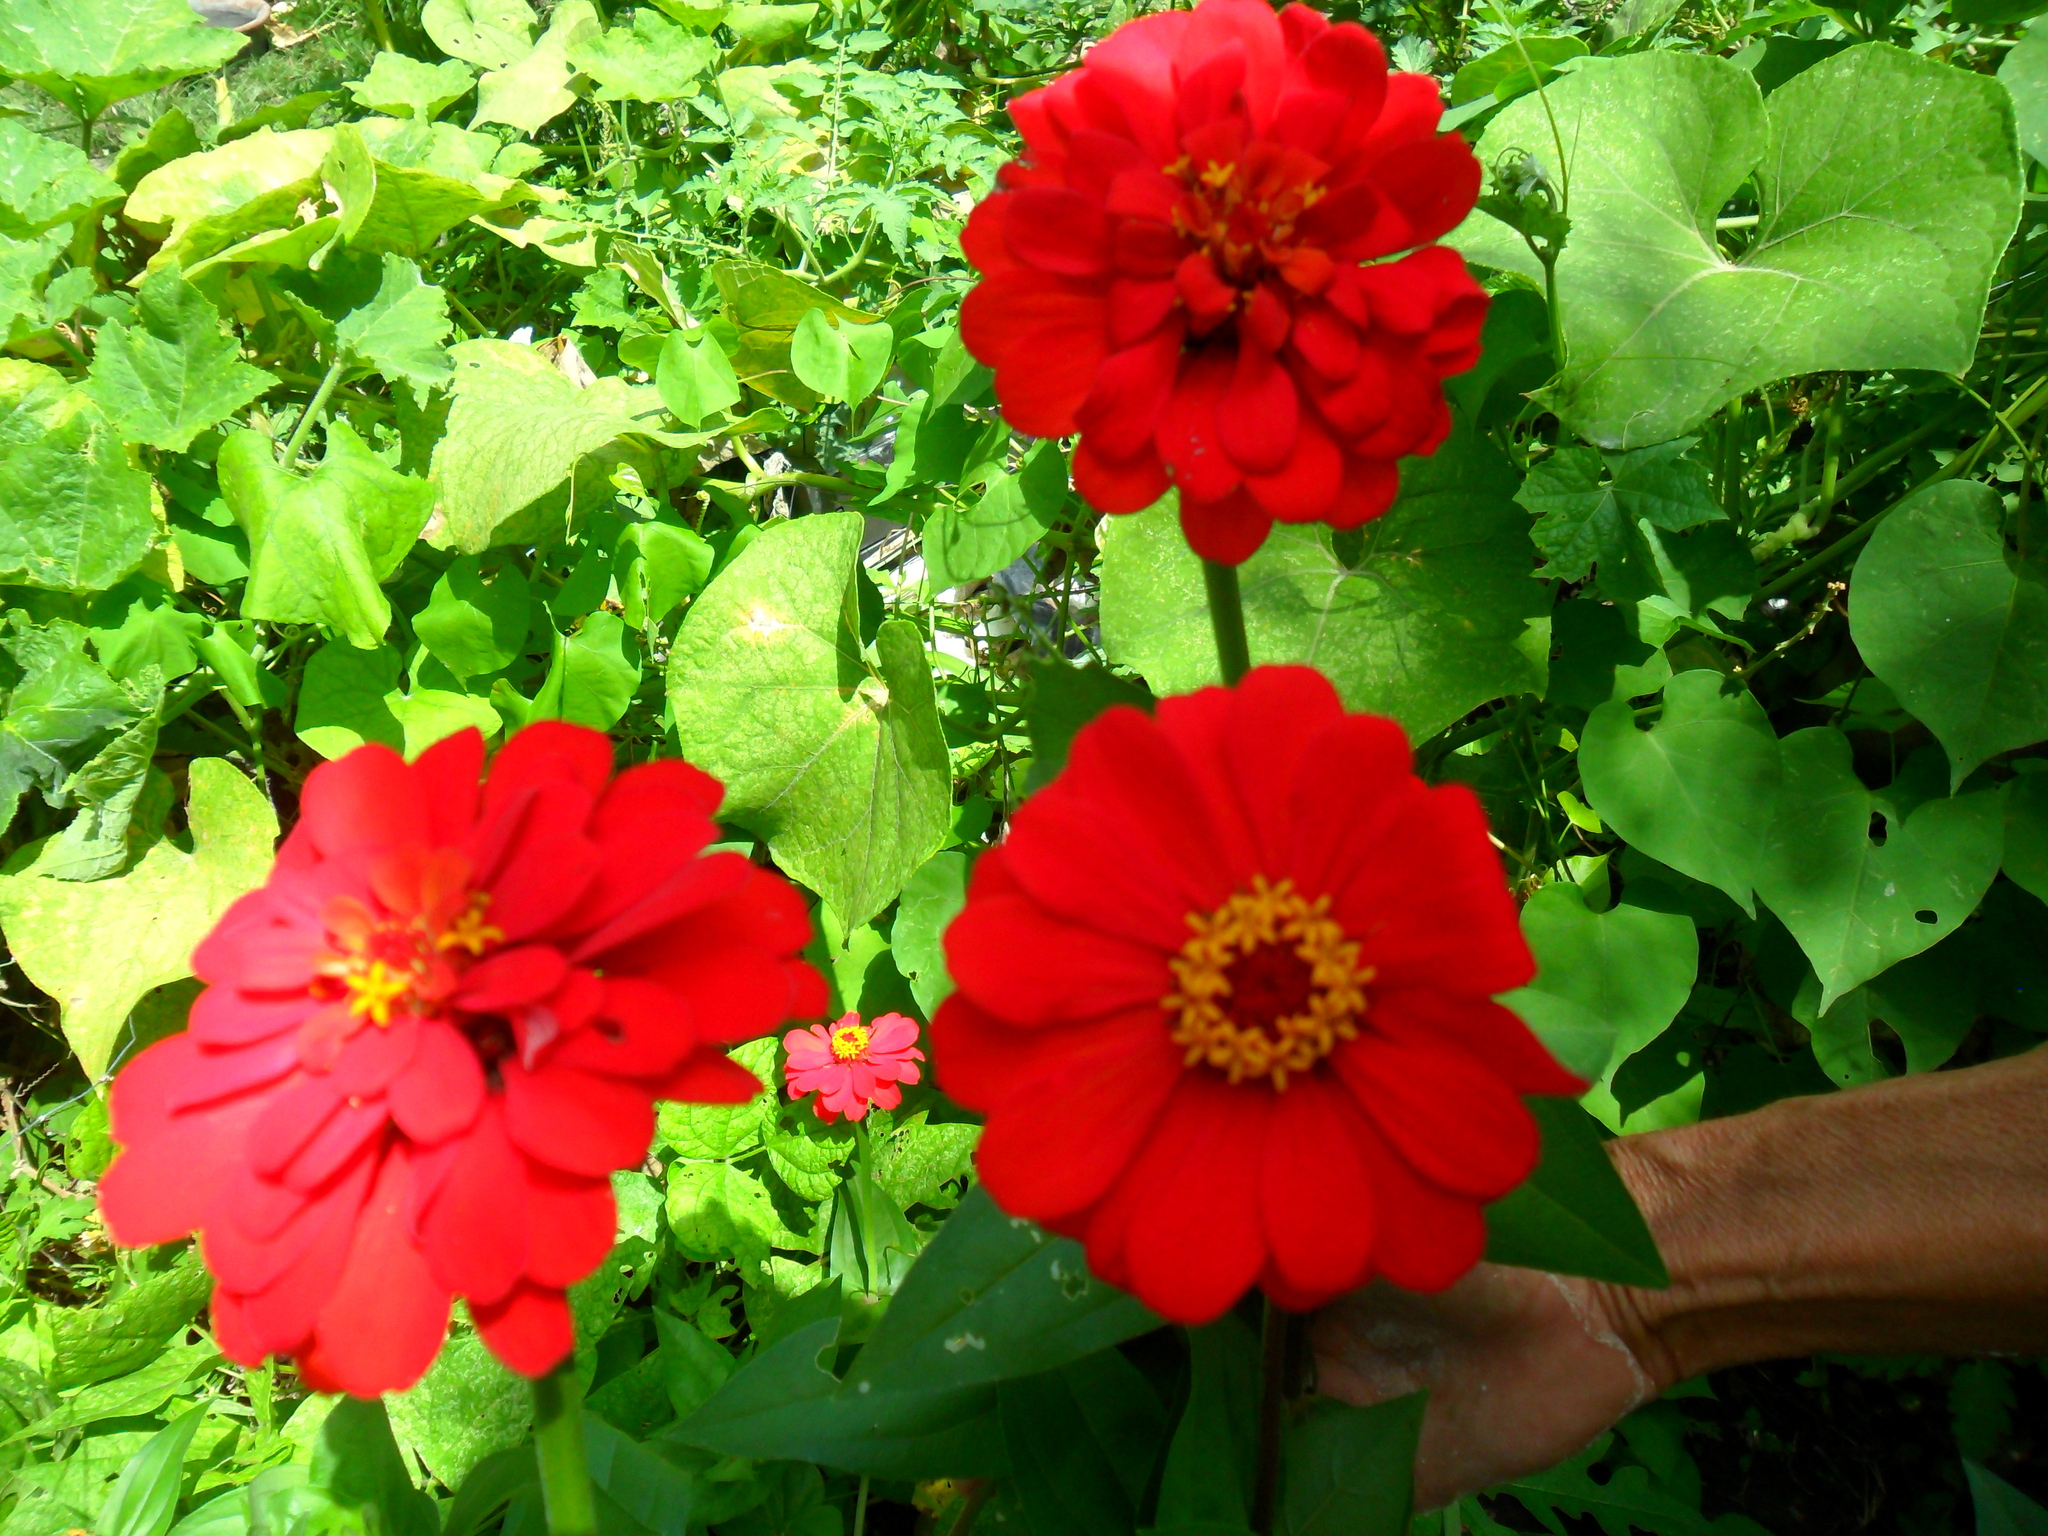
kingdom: Plantae
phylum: Tracheophyta
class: Magnoliopsida
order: Asterales
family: Asteraceae
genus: Zinnia
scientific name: Zinnia elegans
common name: Youth-and-age
